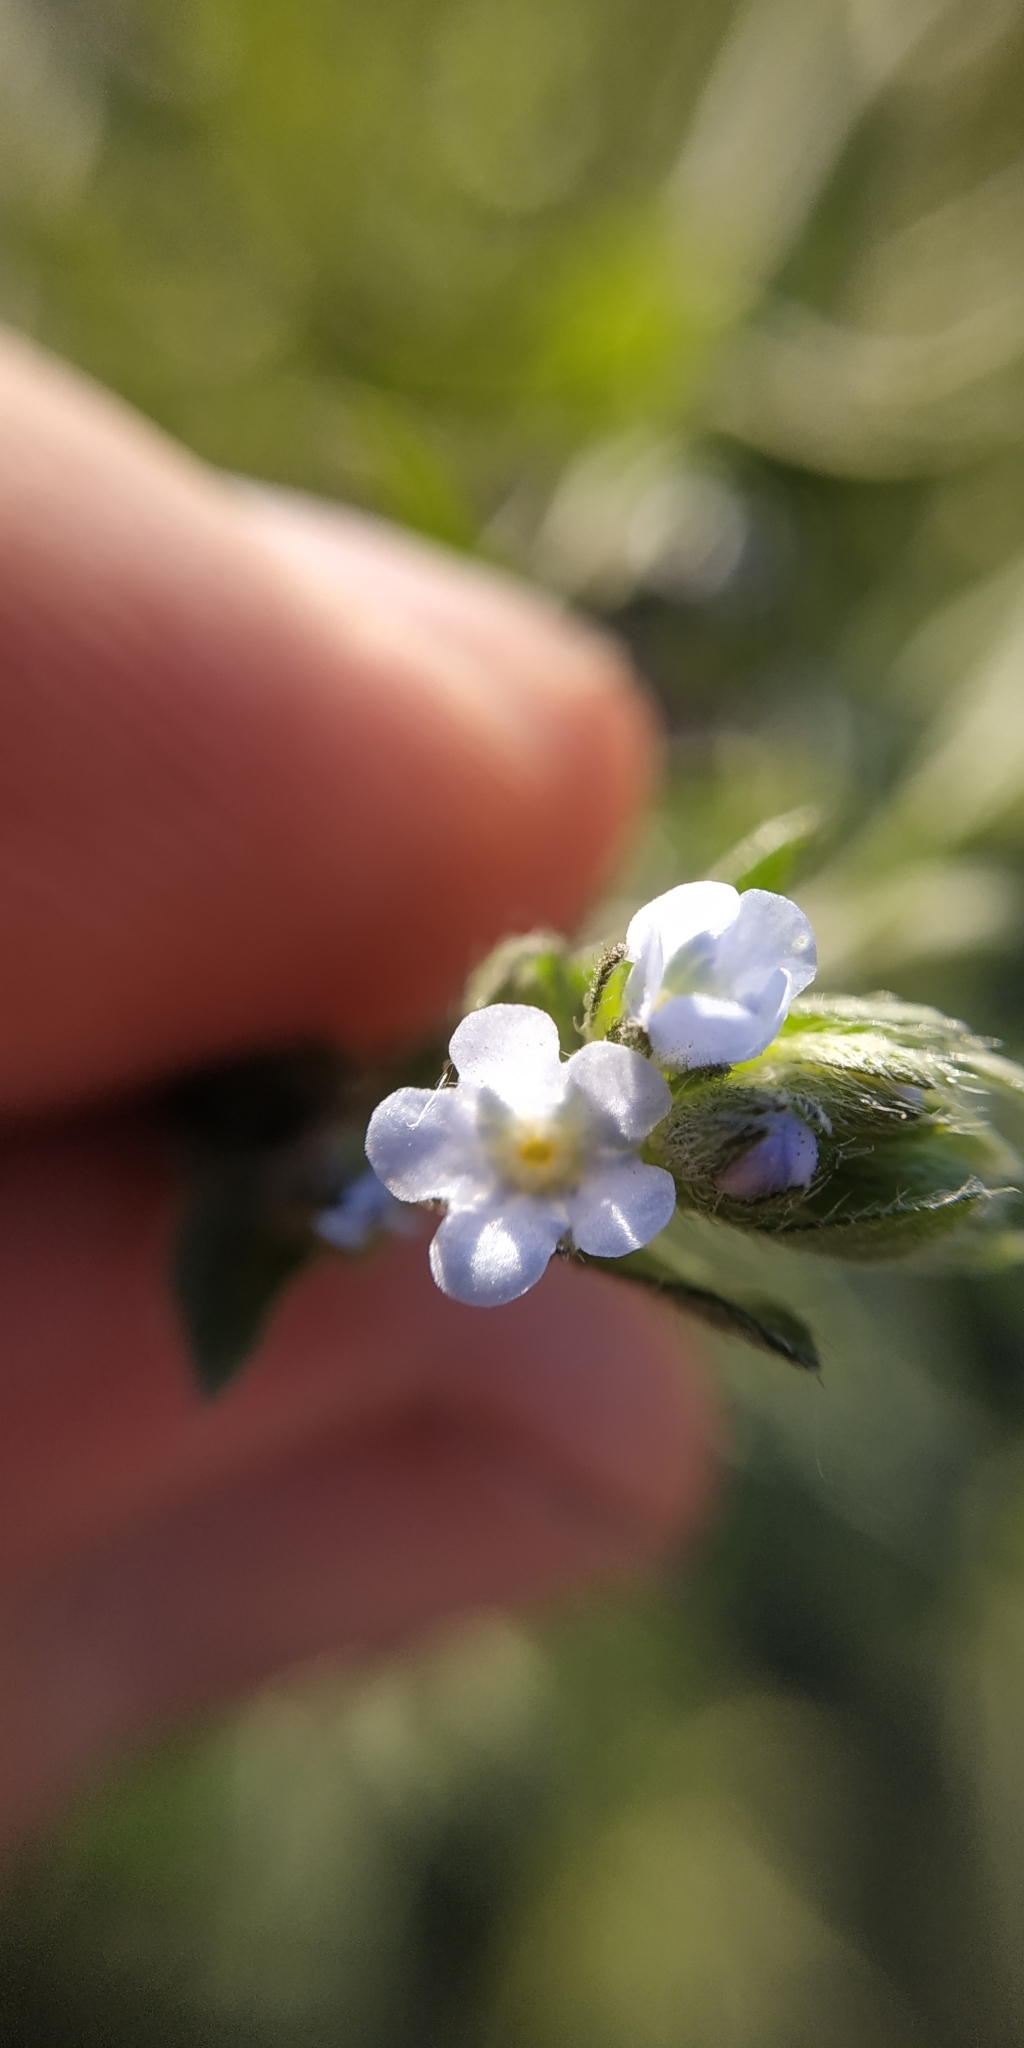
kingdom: Plantae
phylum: Tracheophyta
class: Magnoliopsida
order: Boraginales
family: Boraginaceae
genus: Lappula
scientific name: Lappula squarrosa
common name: European stickseed
